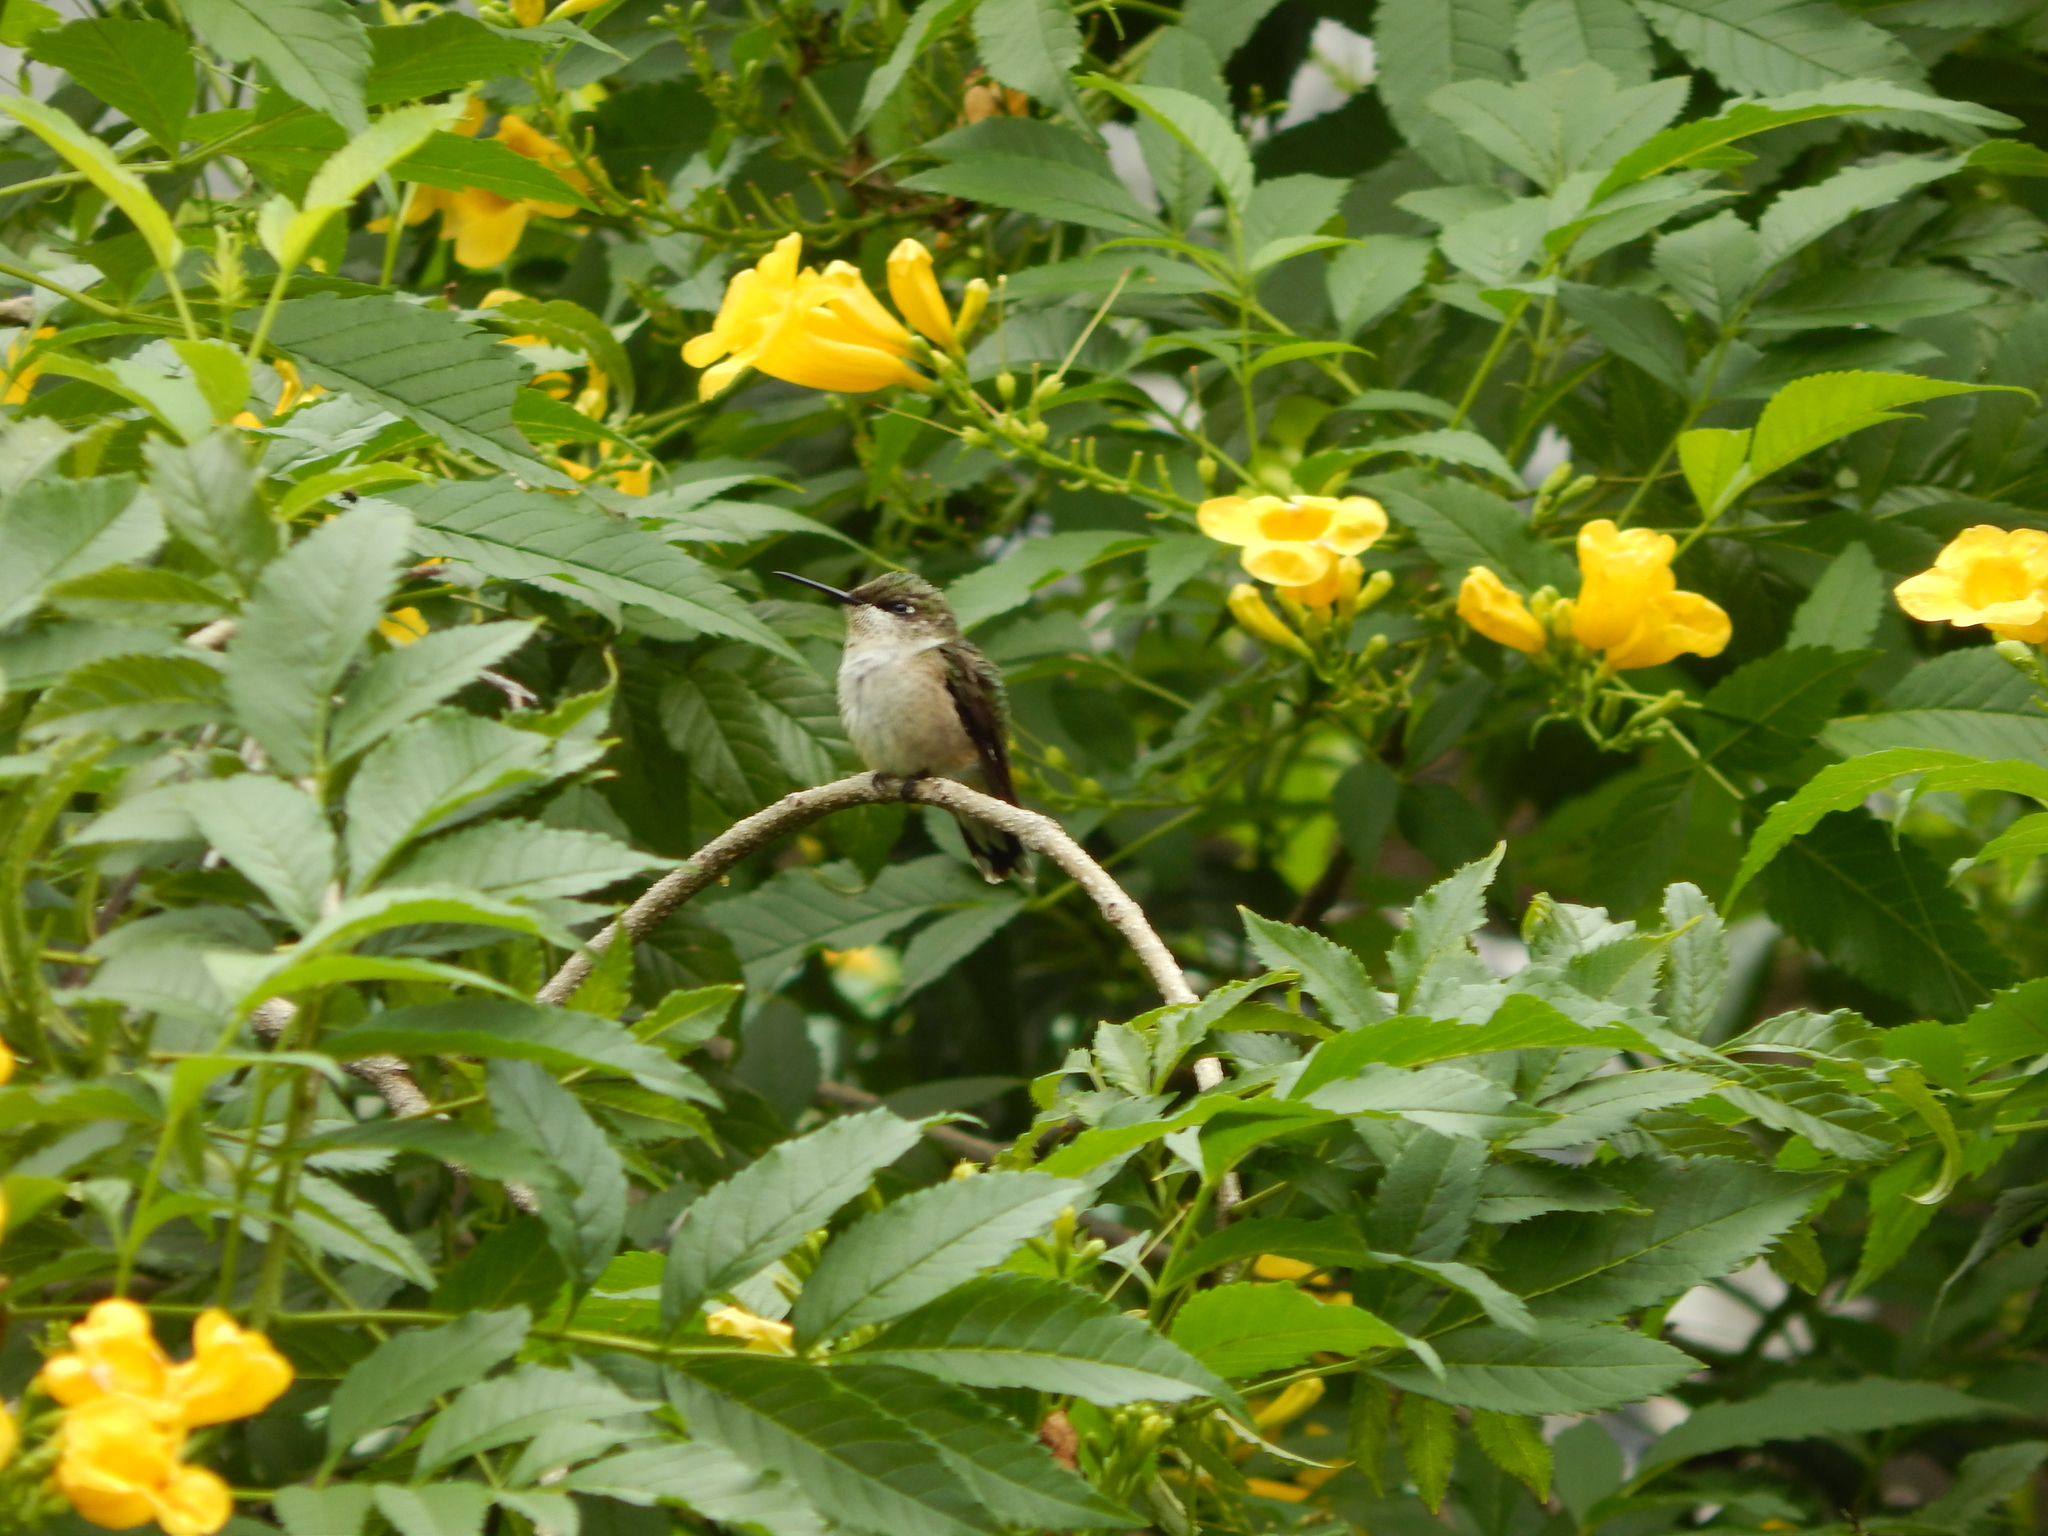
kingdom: Animalia
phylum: Chordata
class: Aves
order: Apodiformes
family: Trochilidae
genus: Archilochus
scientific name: Archilochus colubris
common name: Ruby-throated hummingbird
